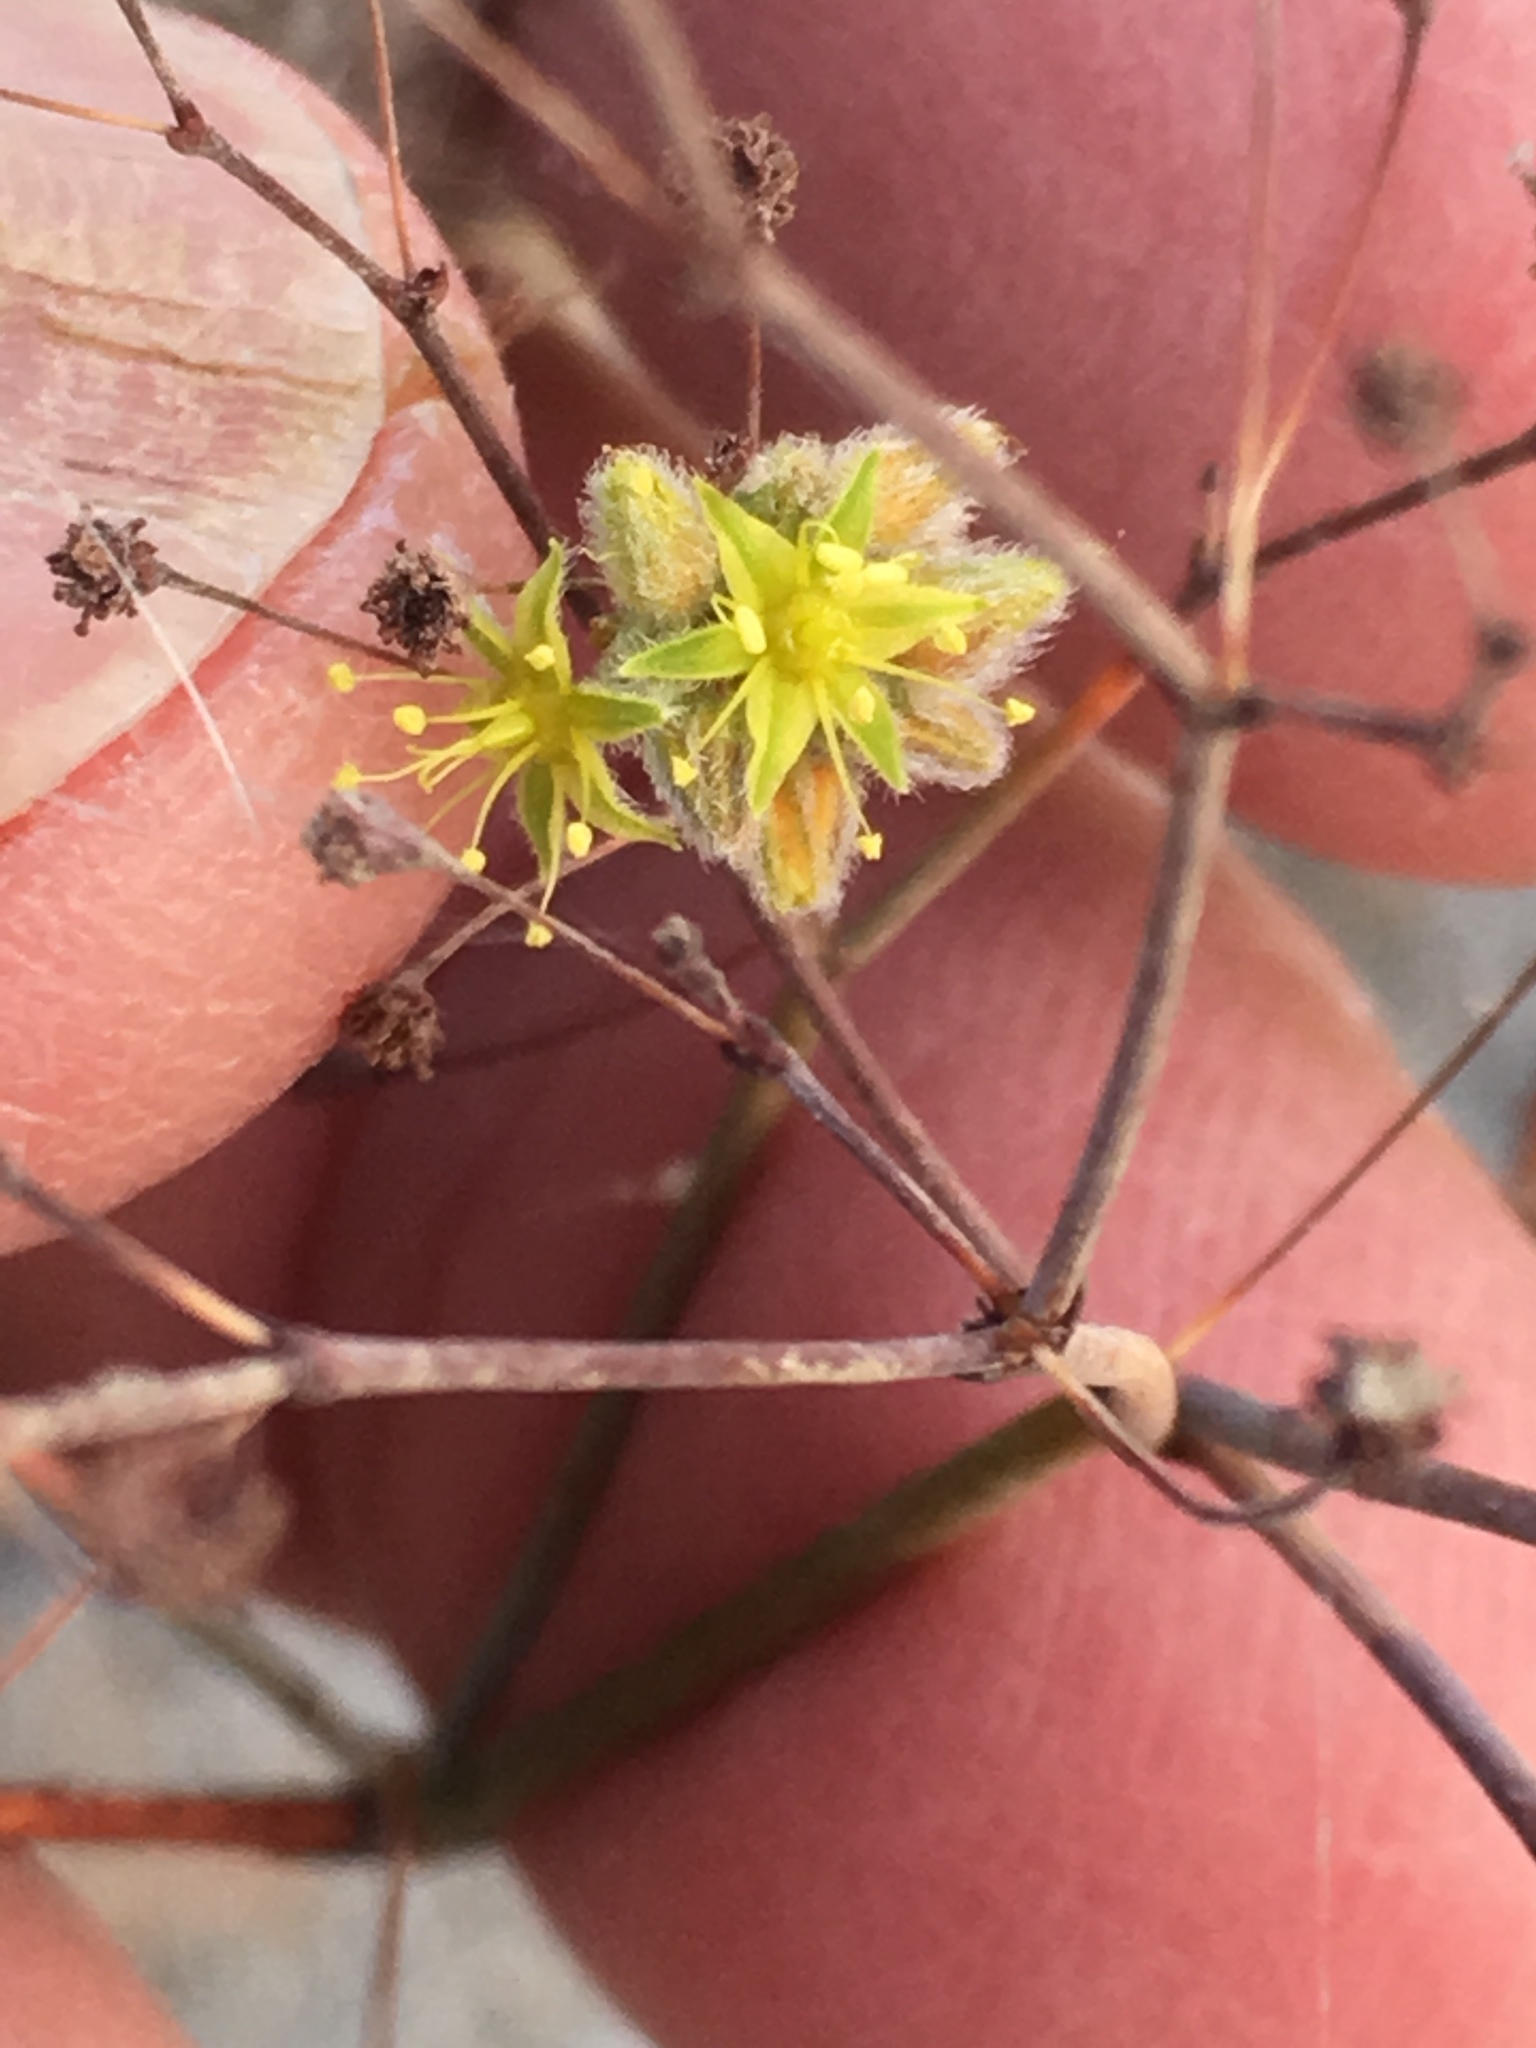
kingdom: Plantae
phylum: Tracheophyta
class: Magnoliopsida
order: Caryophyllales
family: Polygonaceae
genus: Eriogonum
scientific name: Eriogonum inflatum
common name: Desert trumpet
